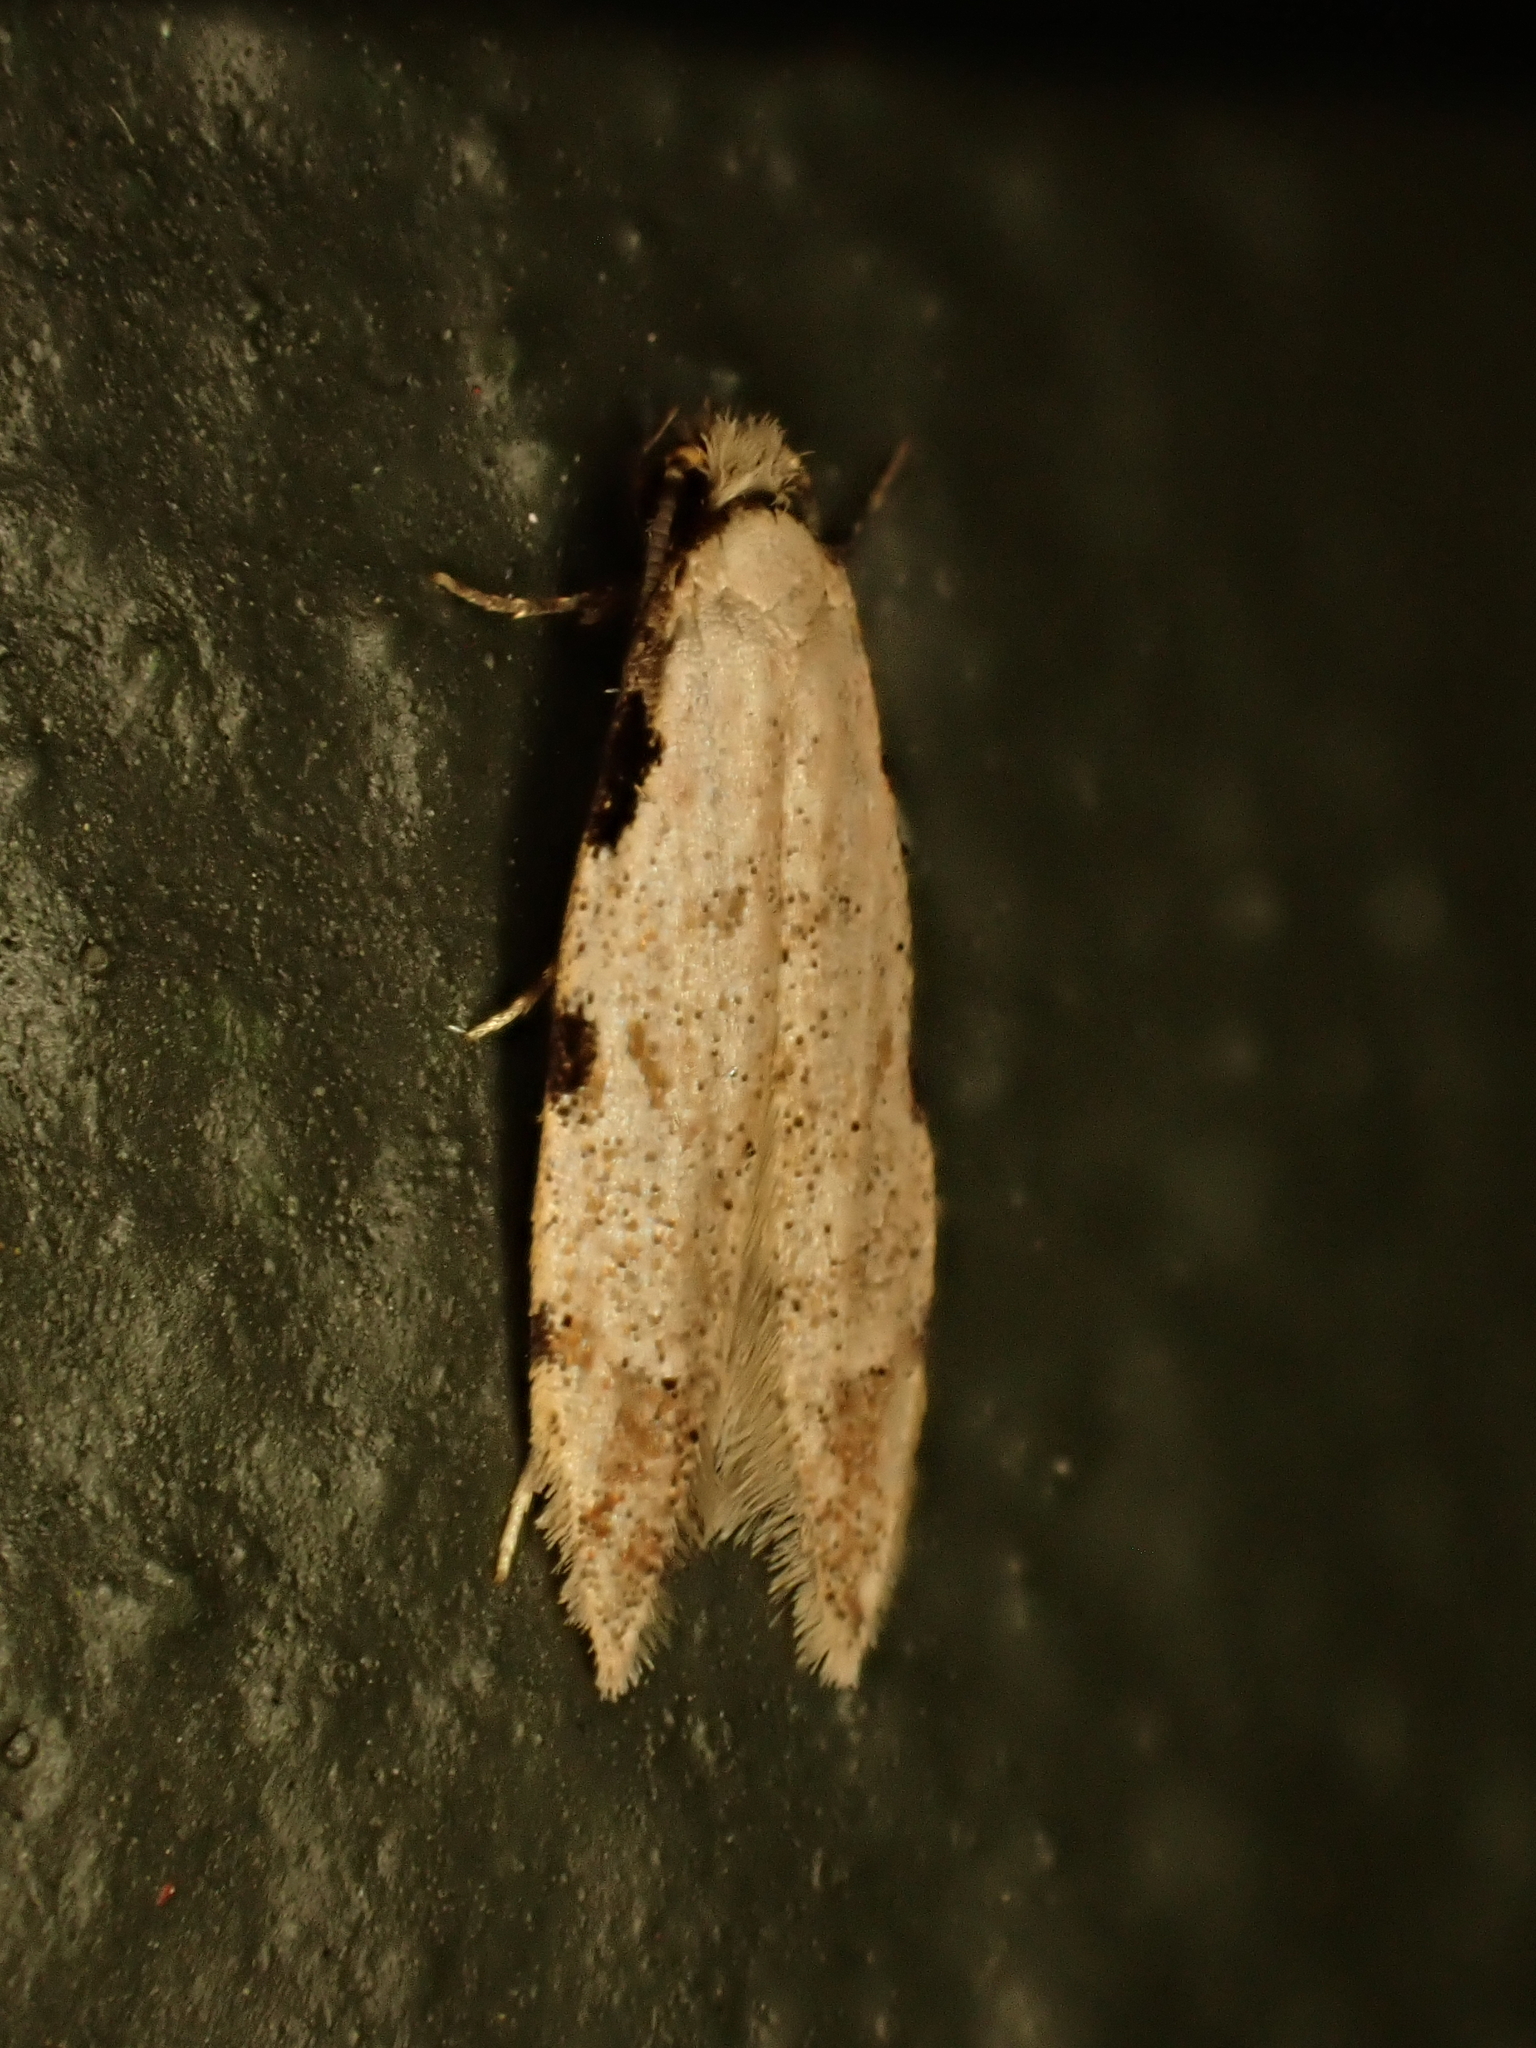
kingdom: Animalia
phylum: Arthropoda
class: Insecta
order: Lepidoptera
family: Tineidae
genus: Endophthora
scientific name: Endophthora omogramma
